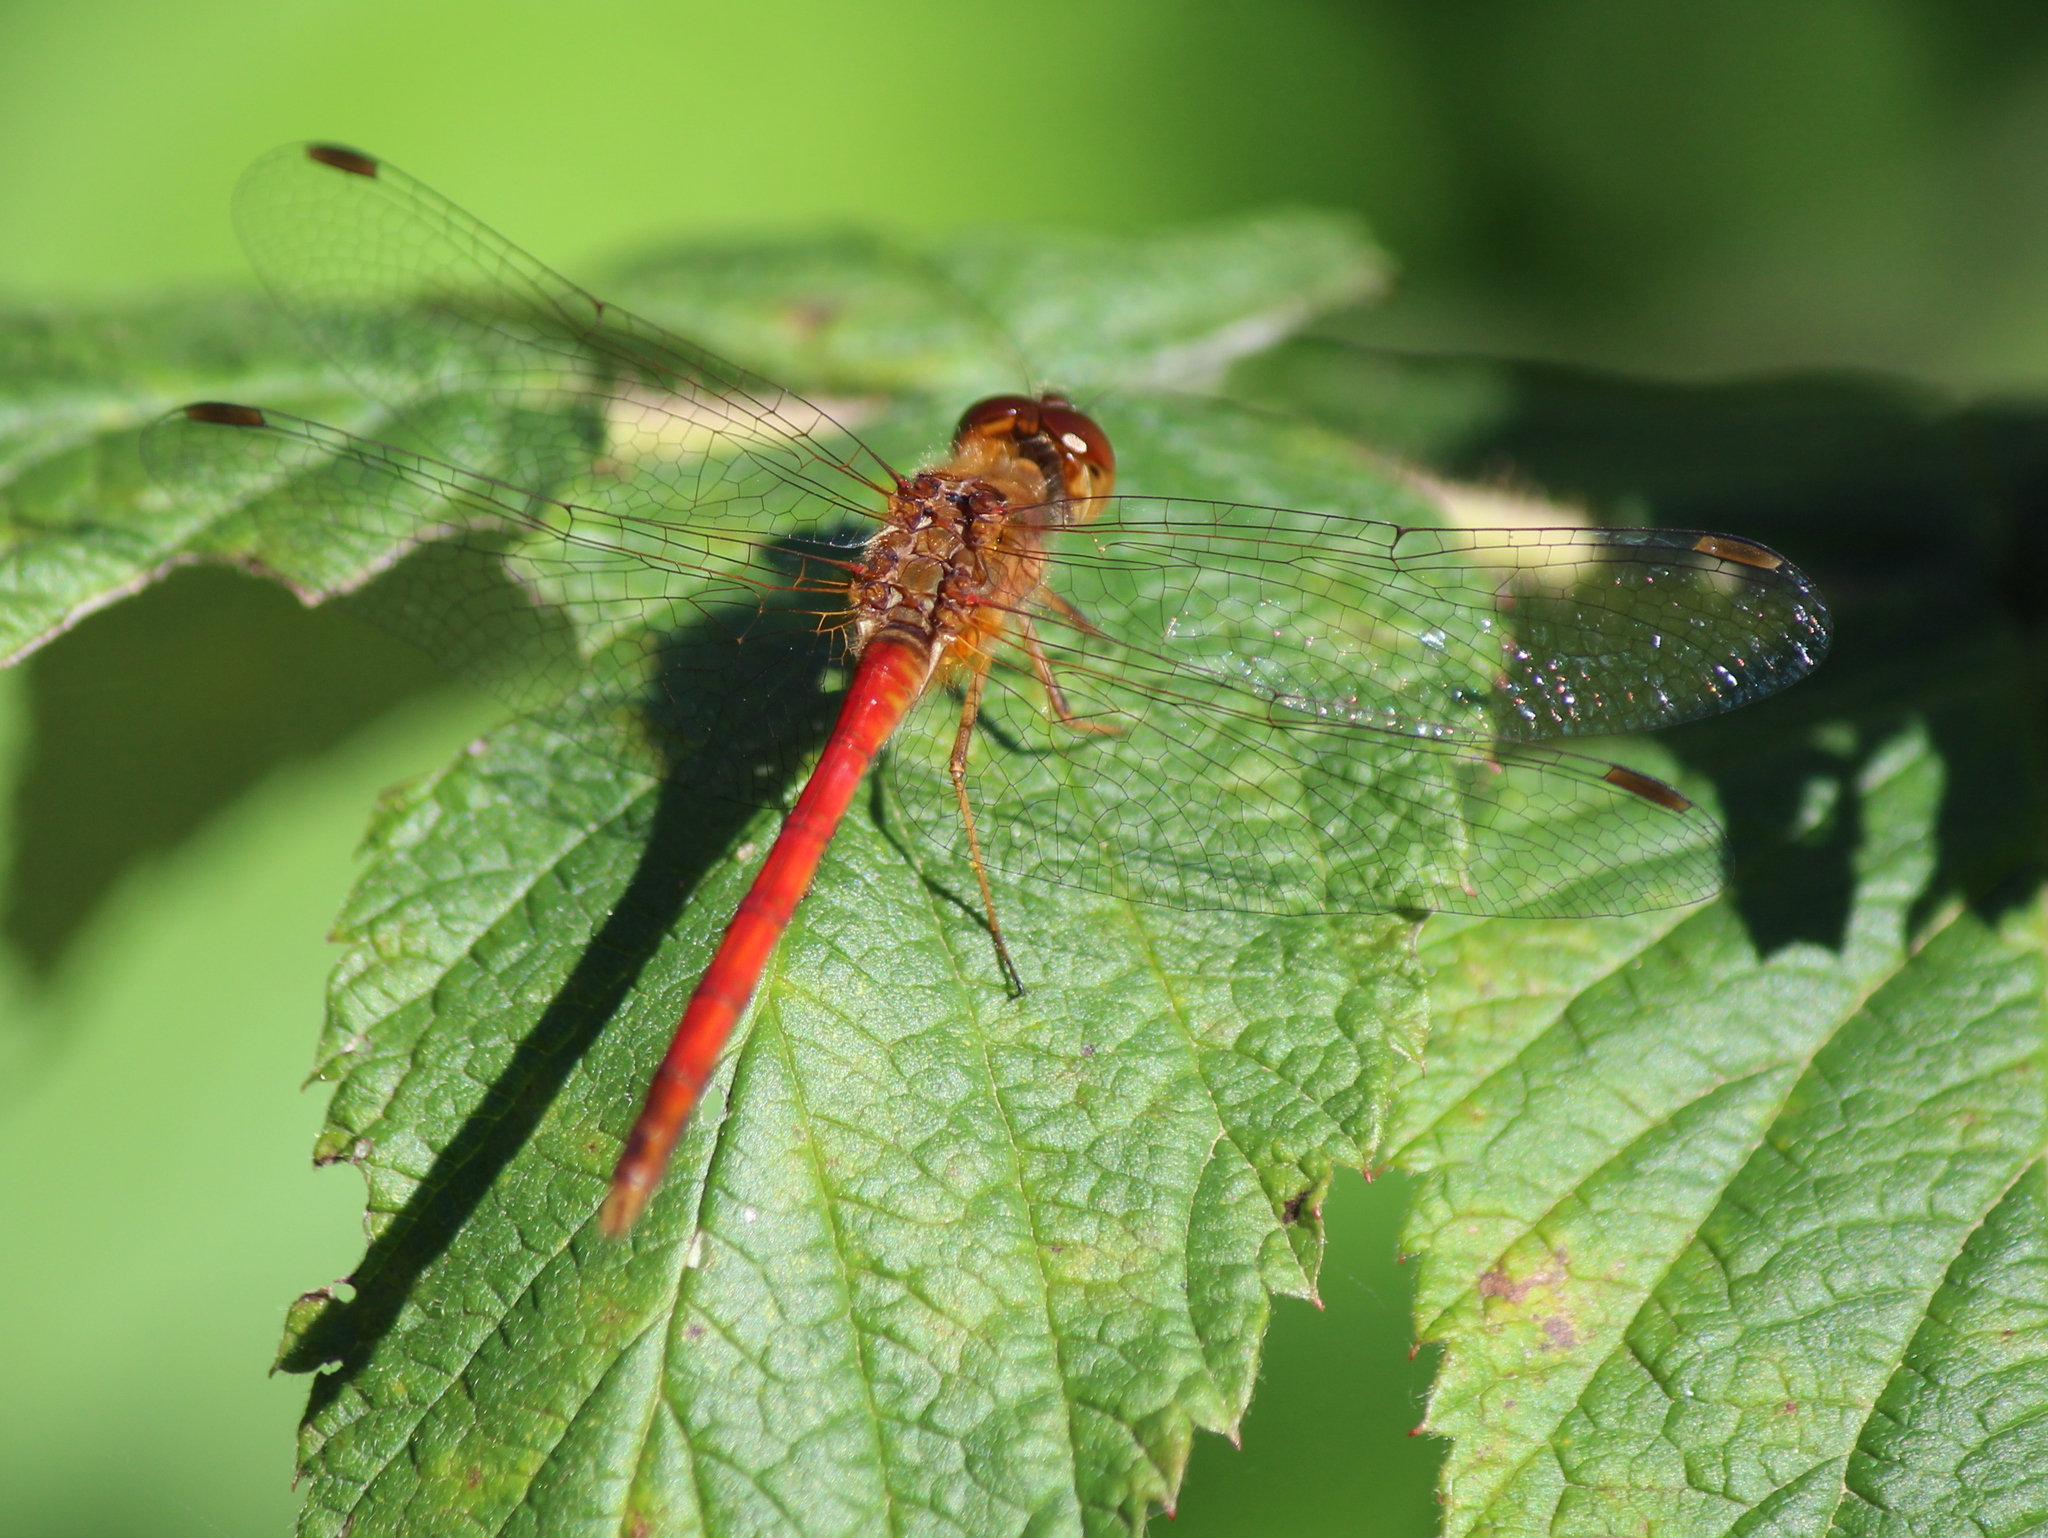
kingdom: Animalia
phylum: Arthropoda
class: Insecta
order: Odonata
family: Libellulidae
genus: Sympetrum
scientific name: Sympetrum vicinum
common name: Autumn meadowhawk
